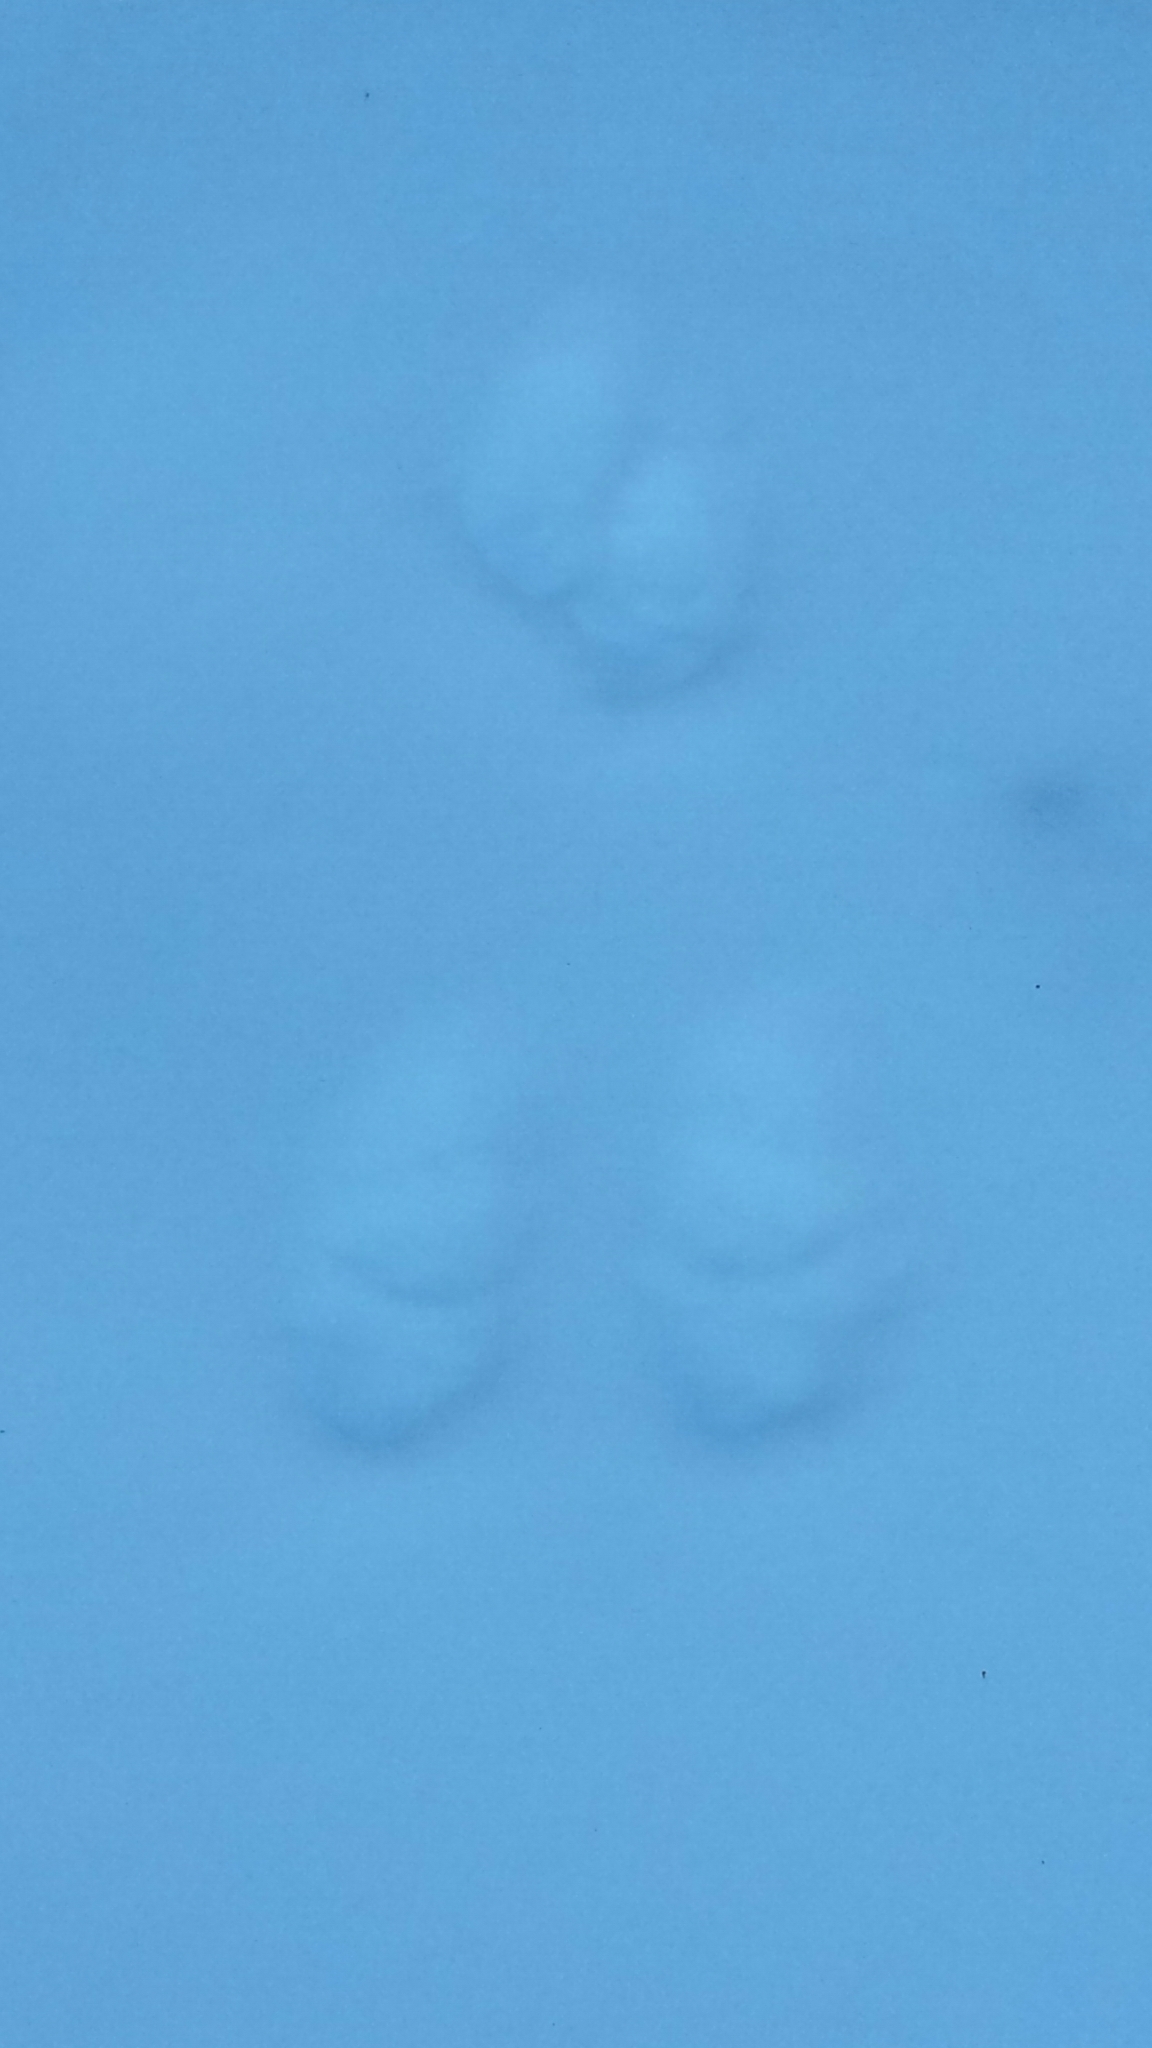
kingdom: Animalia
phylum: Chordata
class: Mammalia
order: Lagomorpha
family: Leporidae
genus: Lepus
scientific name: Lepus americanus
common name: Snowshoe hare
